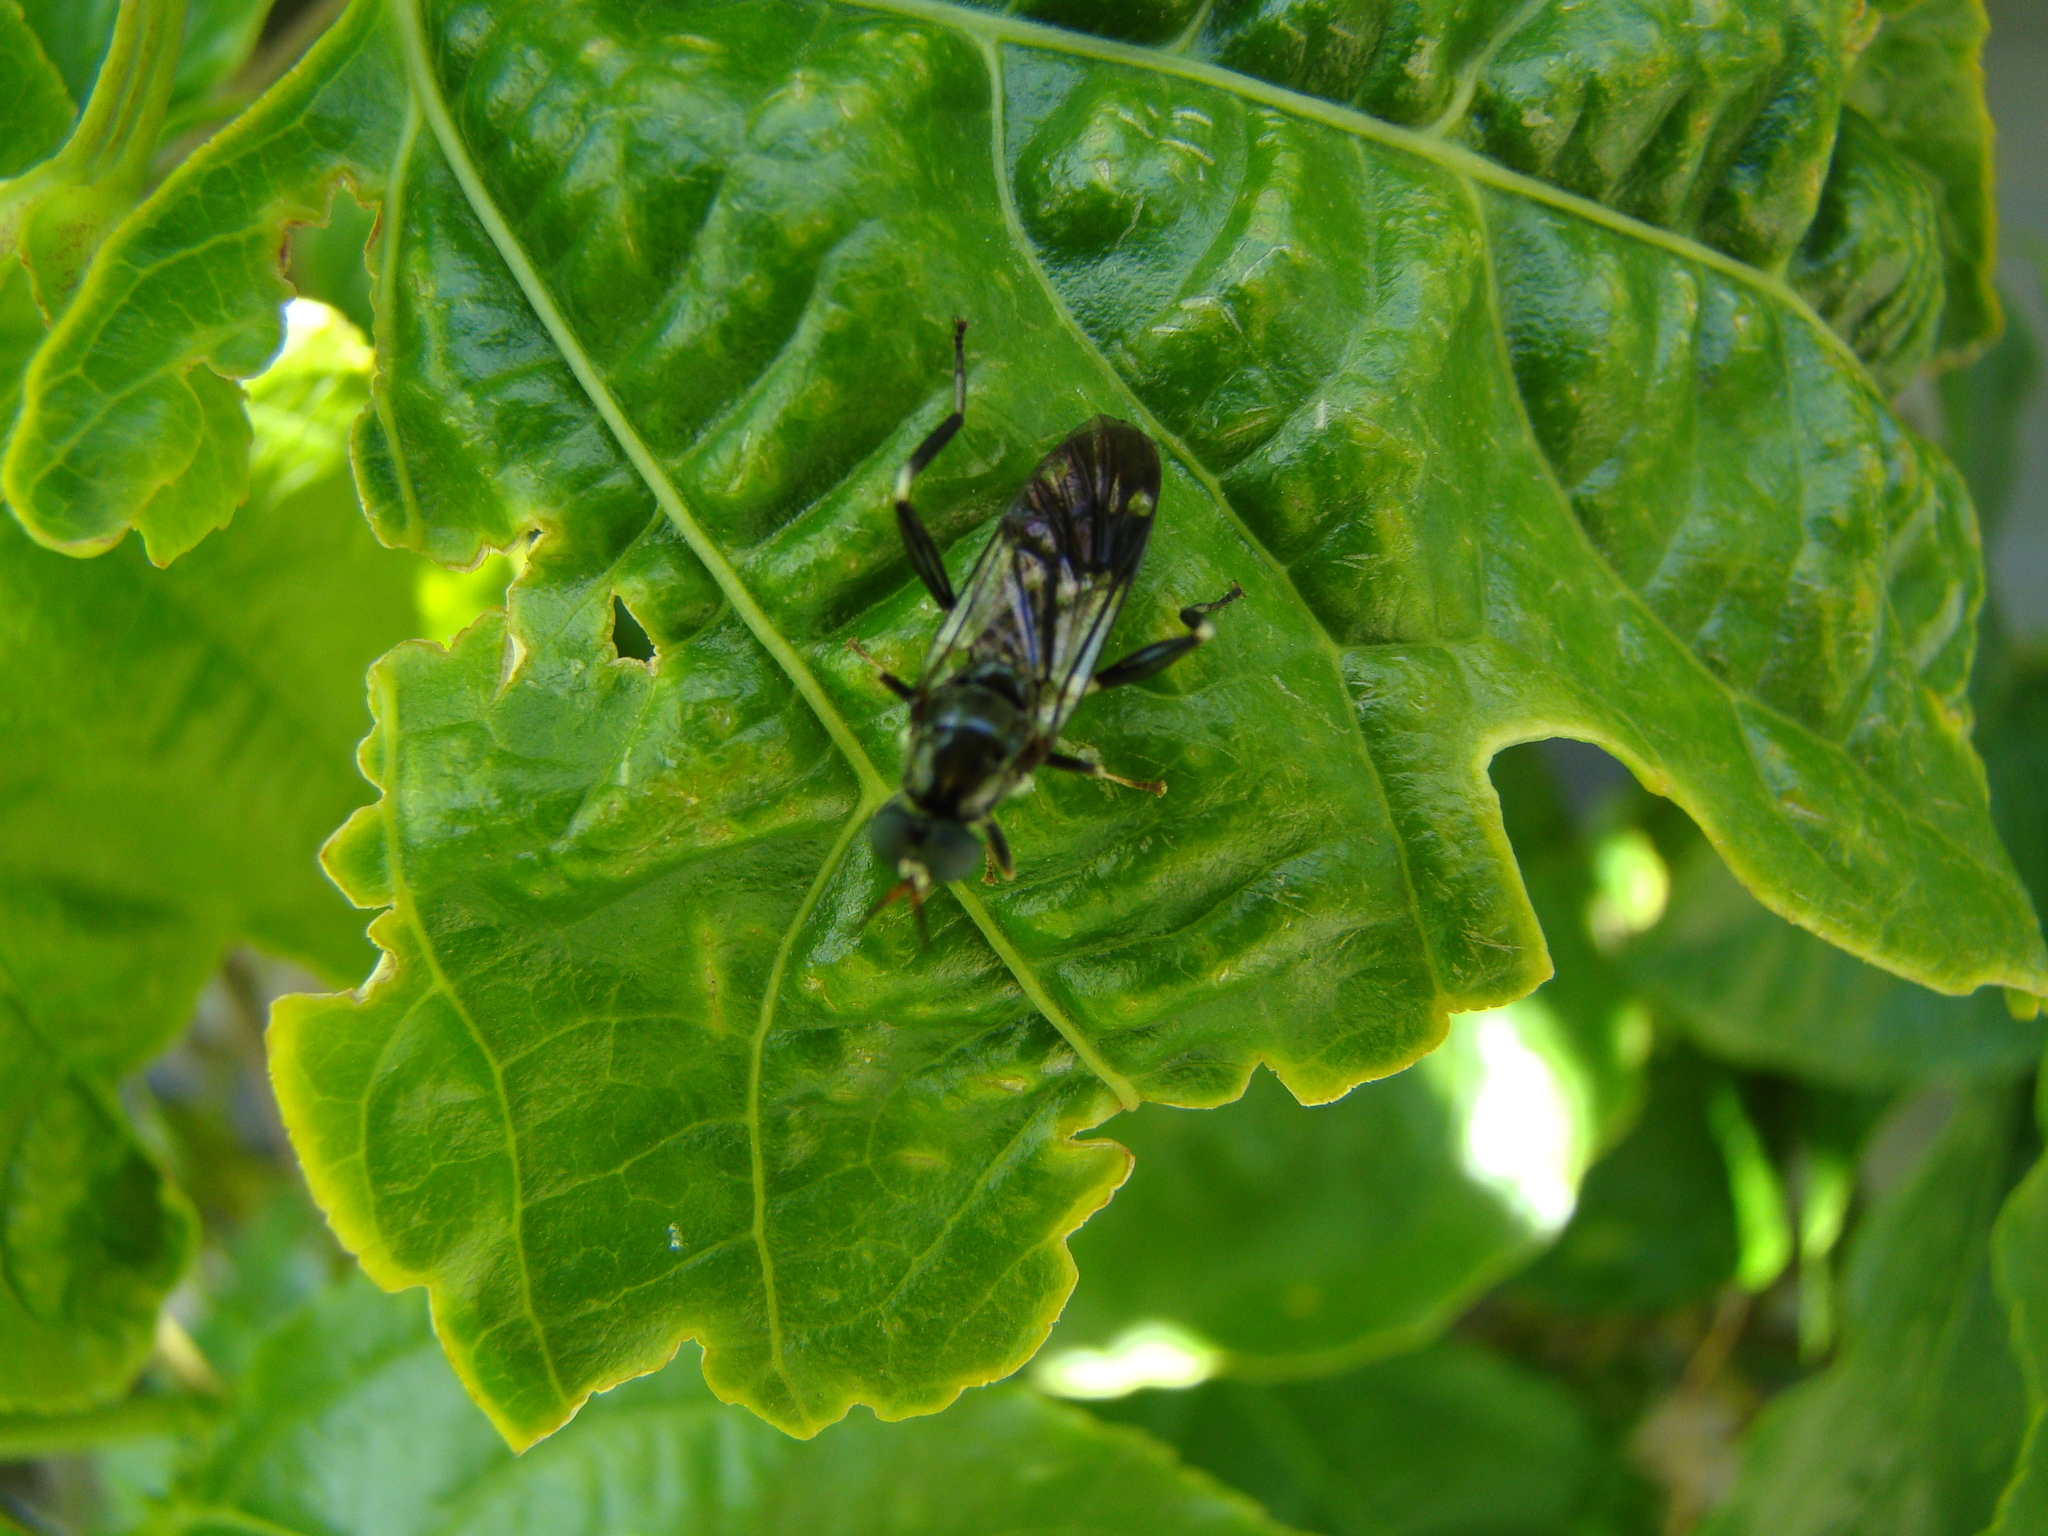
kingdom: Animalia
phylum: Arthropoda
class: Insecta
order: Diptera
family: Stratiomyidae
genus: Exaireta
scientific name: Exaireta spinigera
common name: Blue soldier fly
